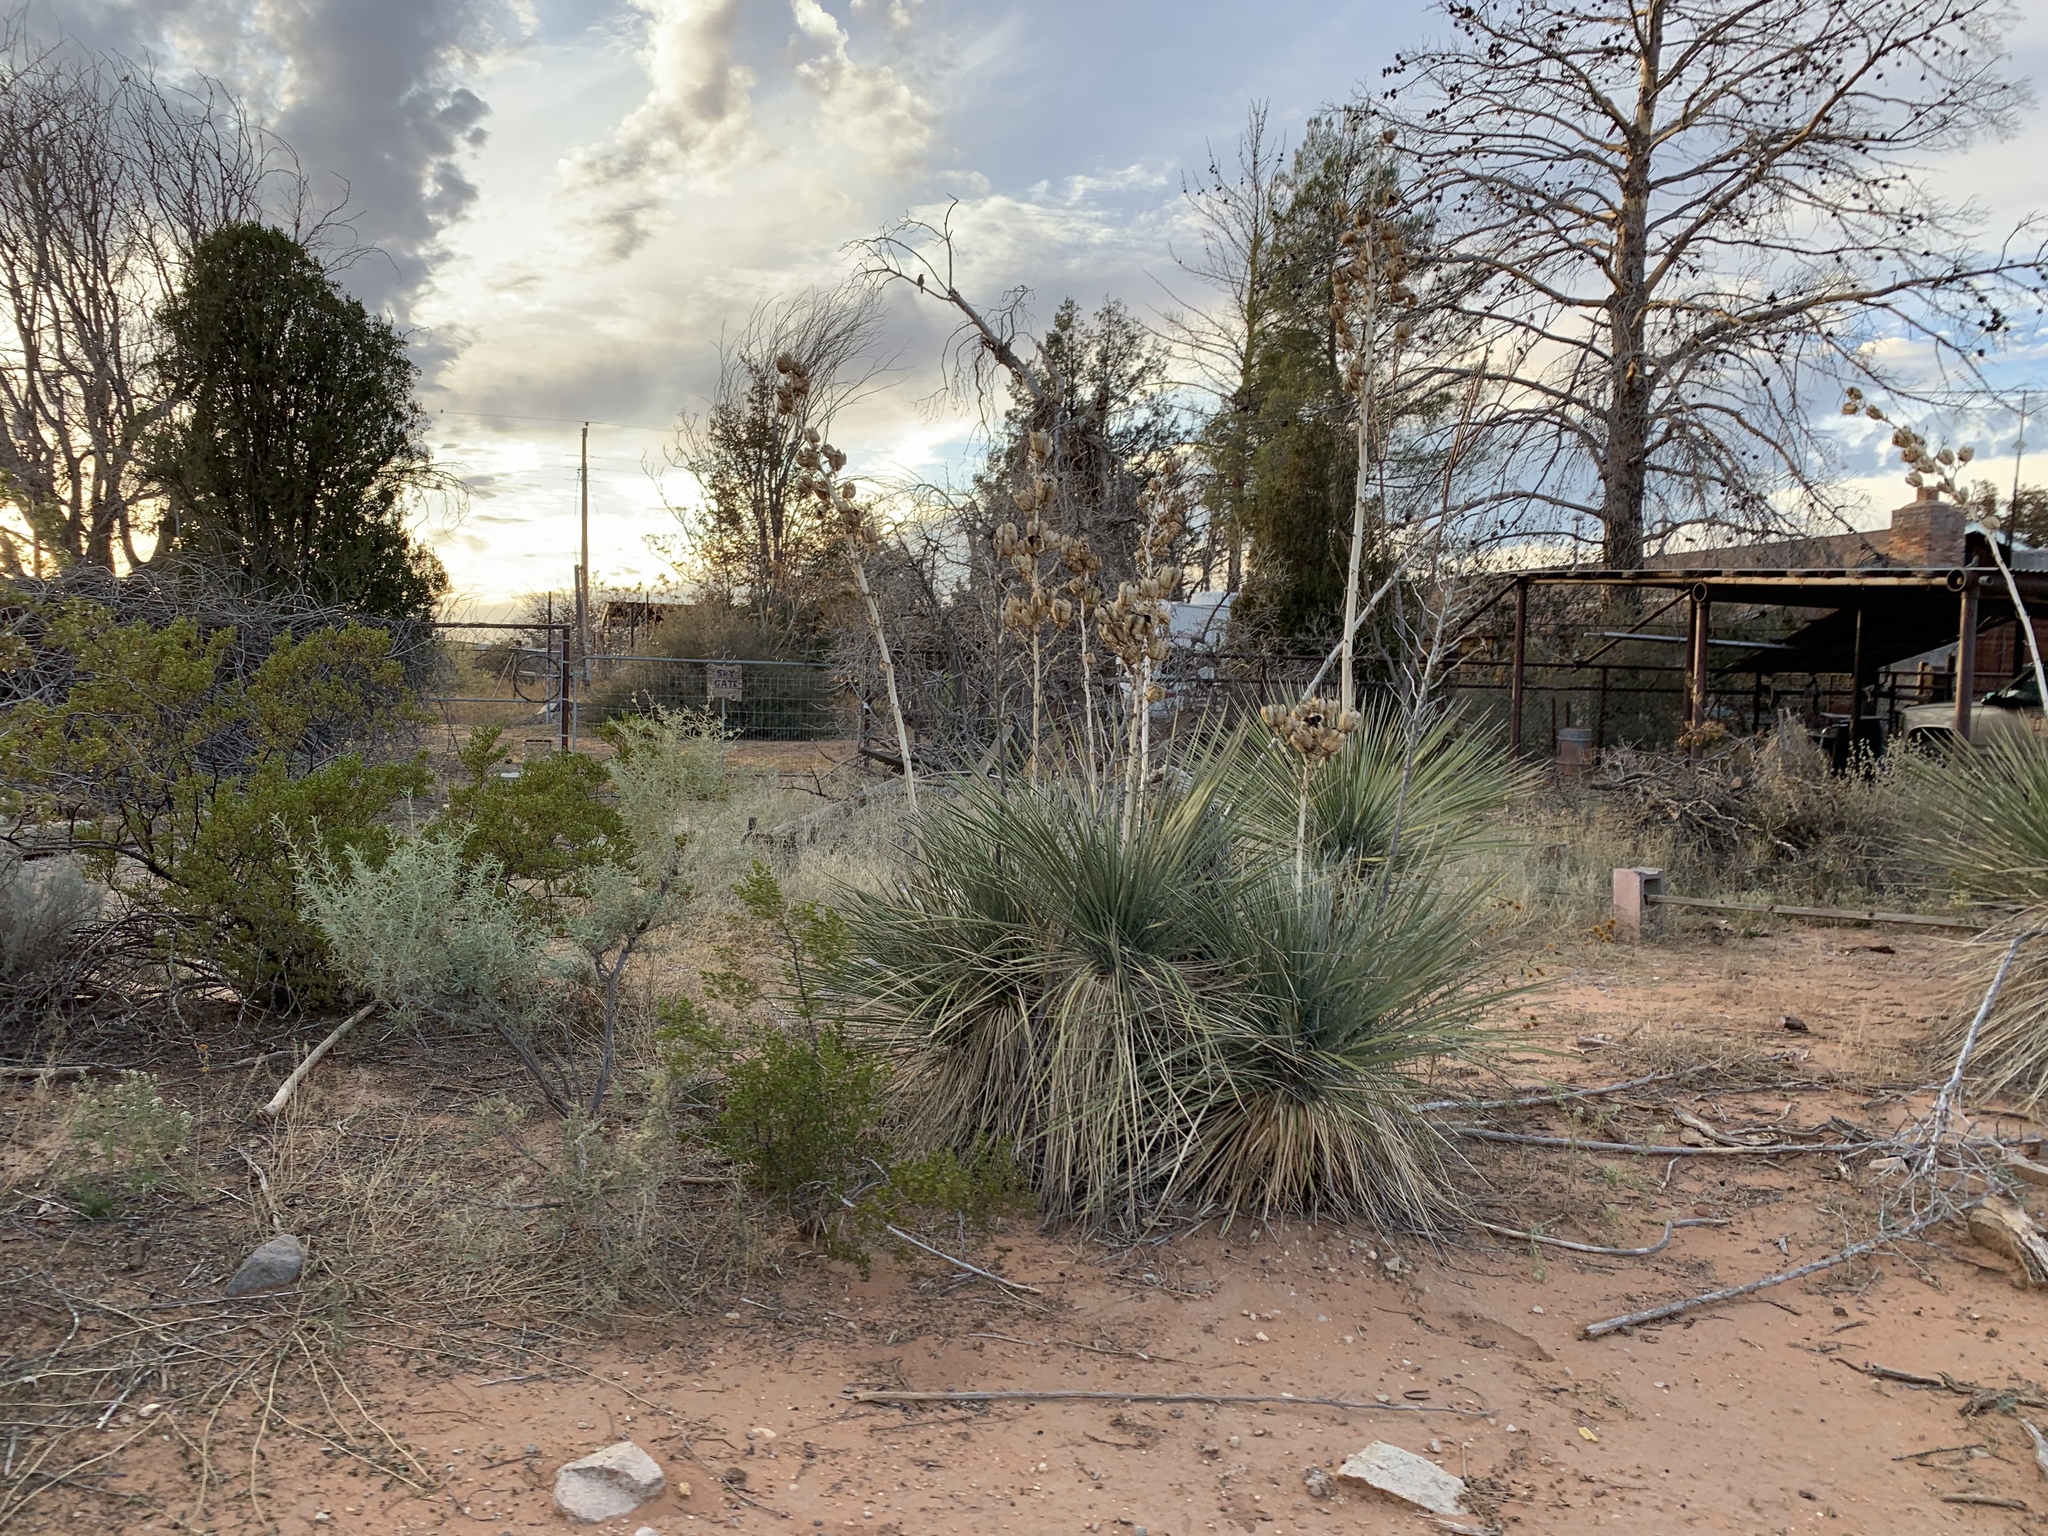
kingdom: Plantae
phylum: Tracheophyta
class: Liliopsida
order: Asparagales
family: Asparagaceae
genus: Yucca
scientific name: Yucca elata
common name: Palmella
